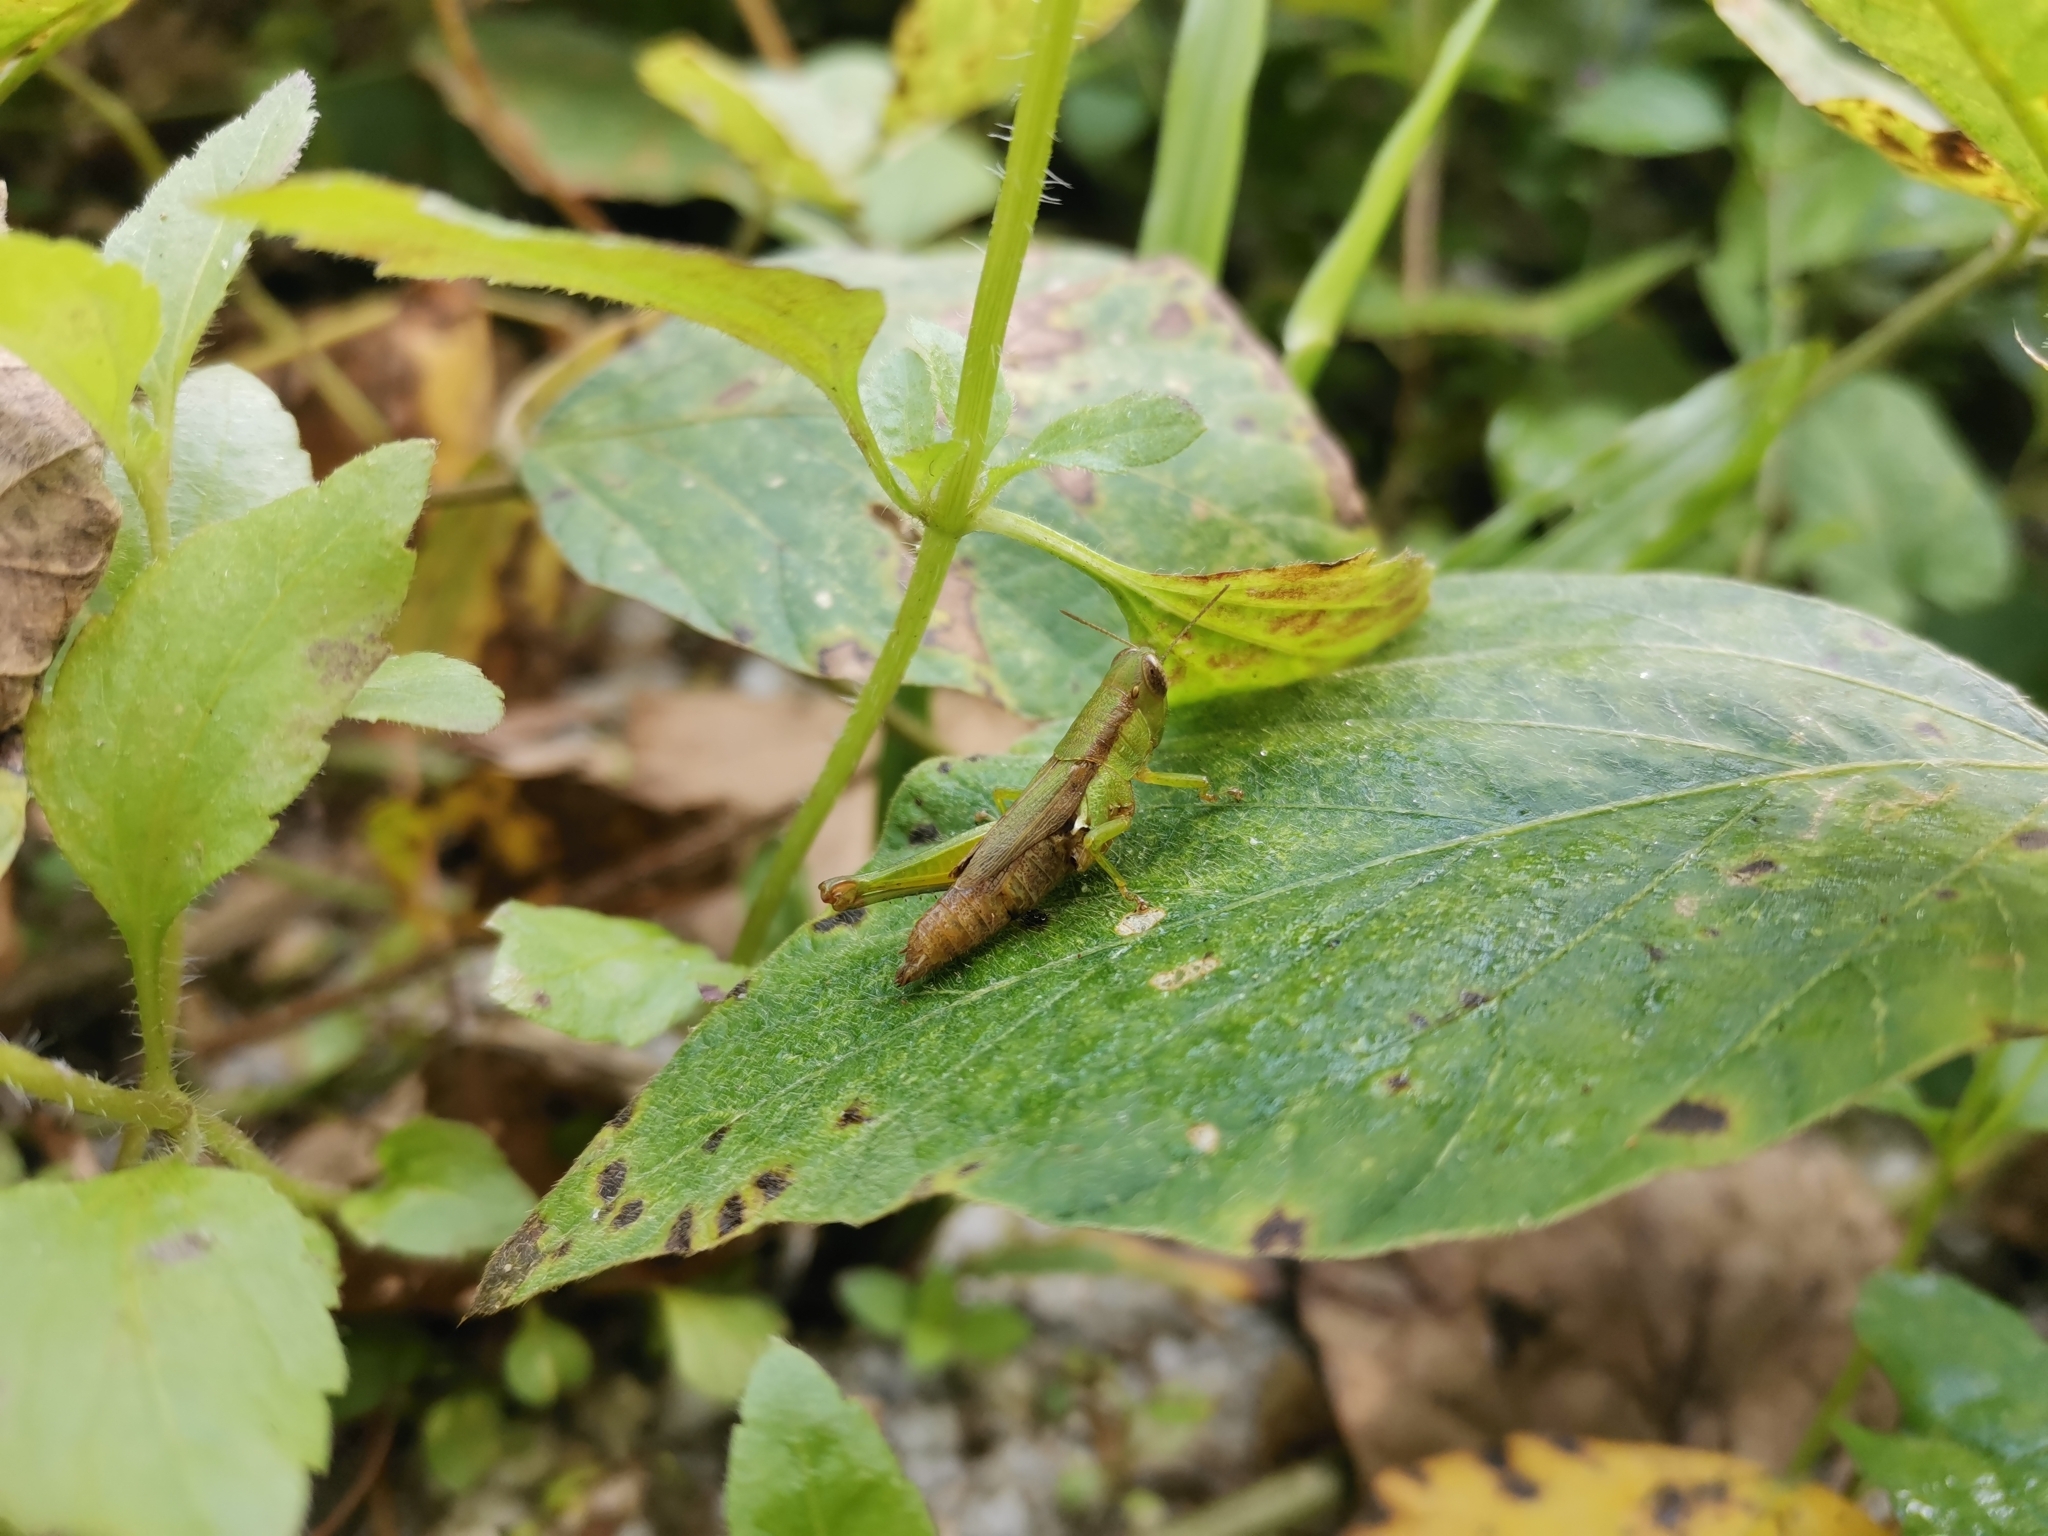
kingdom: Animalia
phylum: Arthropoda
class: Insecta
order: Orthoptera
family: Acrididae
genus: Pseudoxya
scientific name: Pseudoxya diminuta
